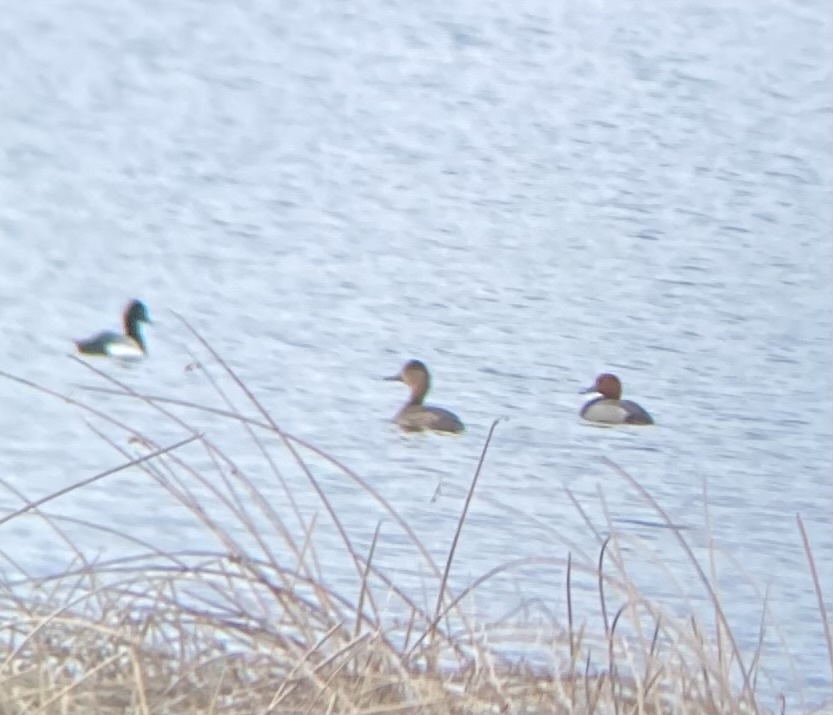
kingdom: Animalia
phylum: Chordata
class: Aves
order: Anseriformes
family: Anatidae
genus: Aythya
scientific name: Aythya americana
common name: Redhead
